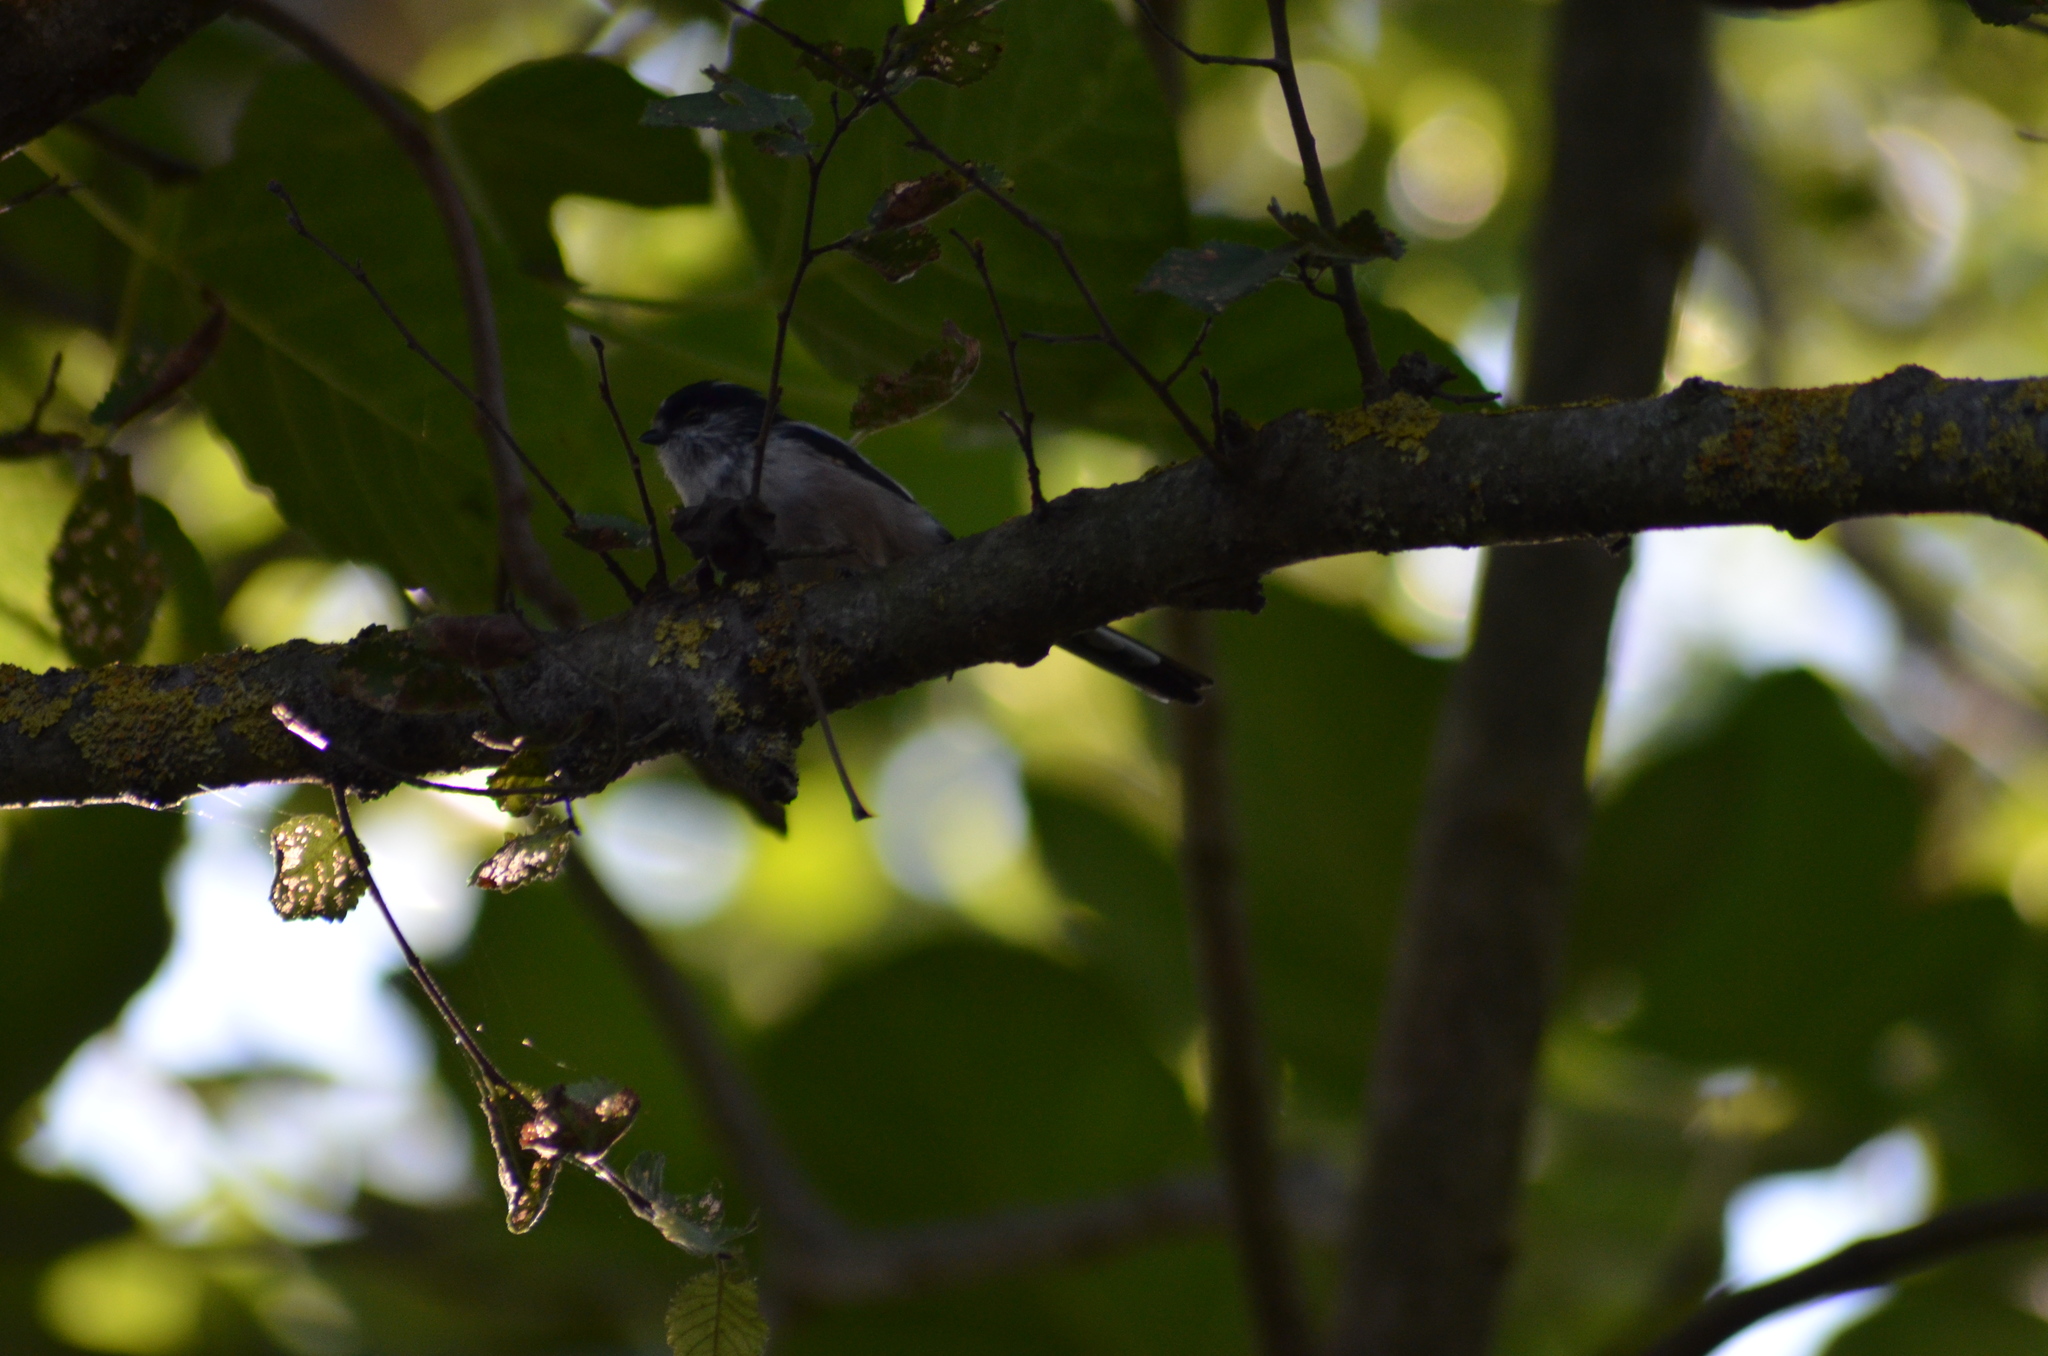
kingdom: Animalia
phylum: Chordata
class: Aves
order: Passeriformes
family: Aegithalidae
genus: Aegithalos
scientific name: Aegithalos caudatus
